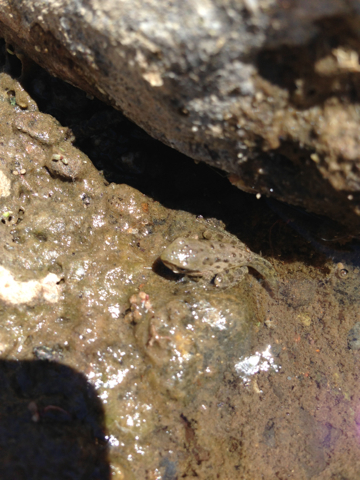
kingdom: Animalia
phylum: Chordata
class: Amphibia
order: Anura
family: Hylidae
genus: Pseudacris
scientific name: Pseudacris regilla
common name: Pacific chorus frog
